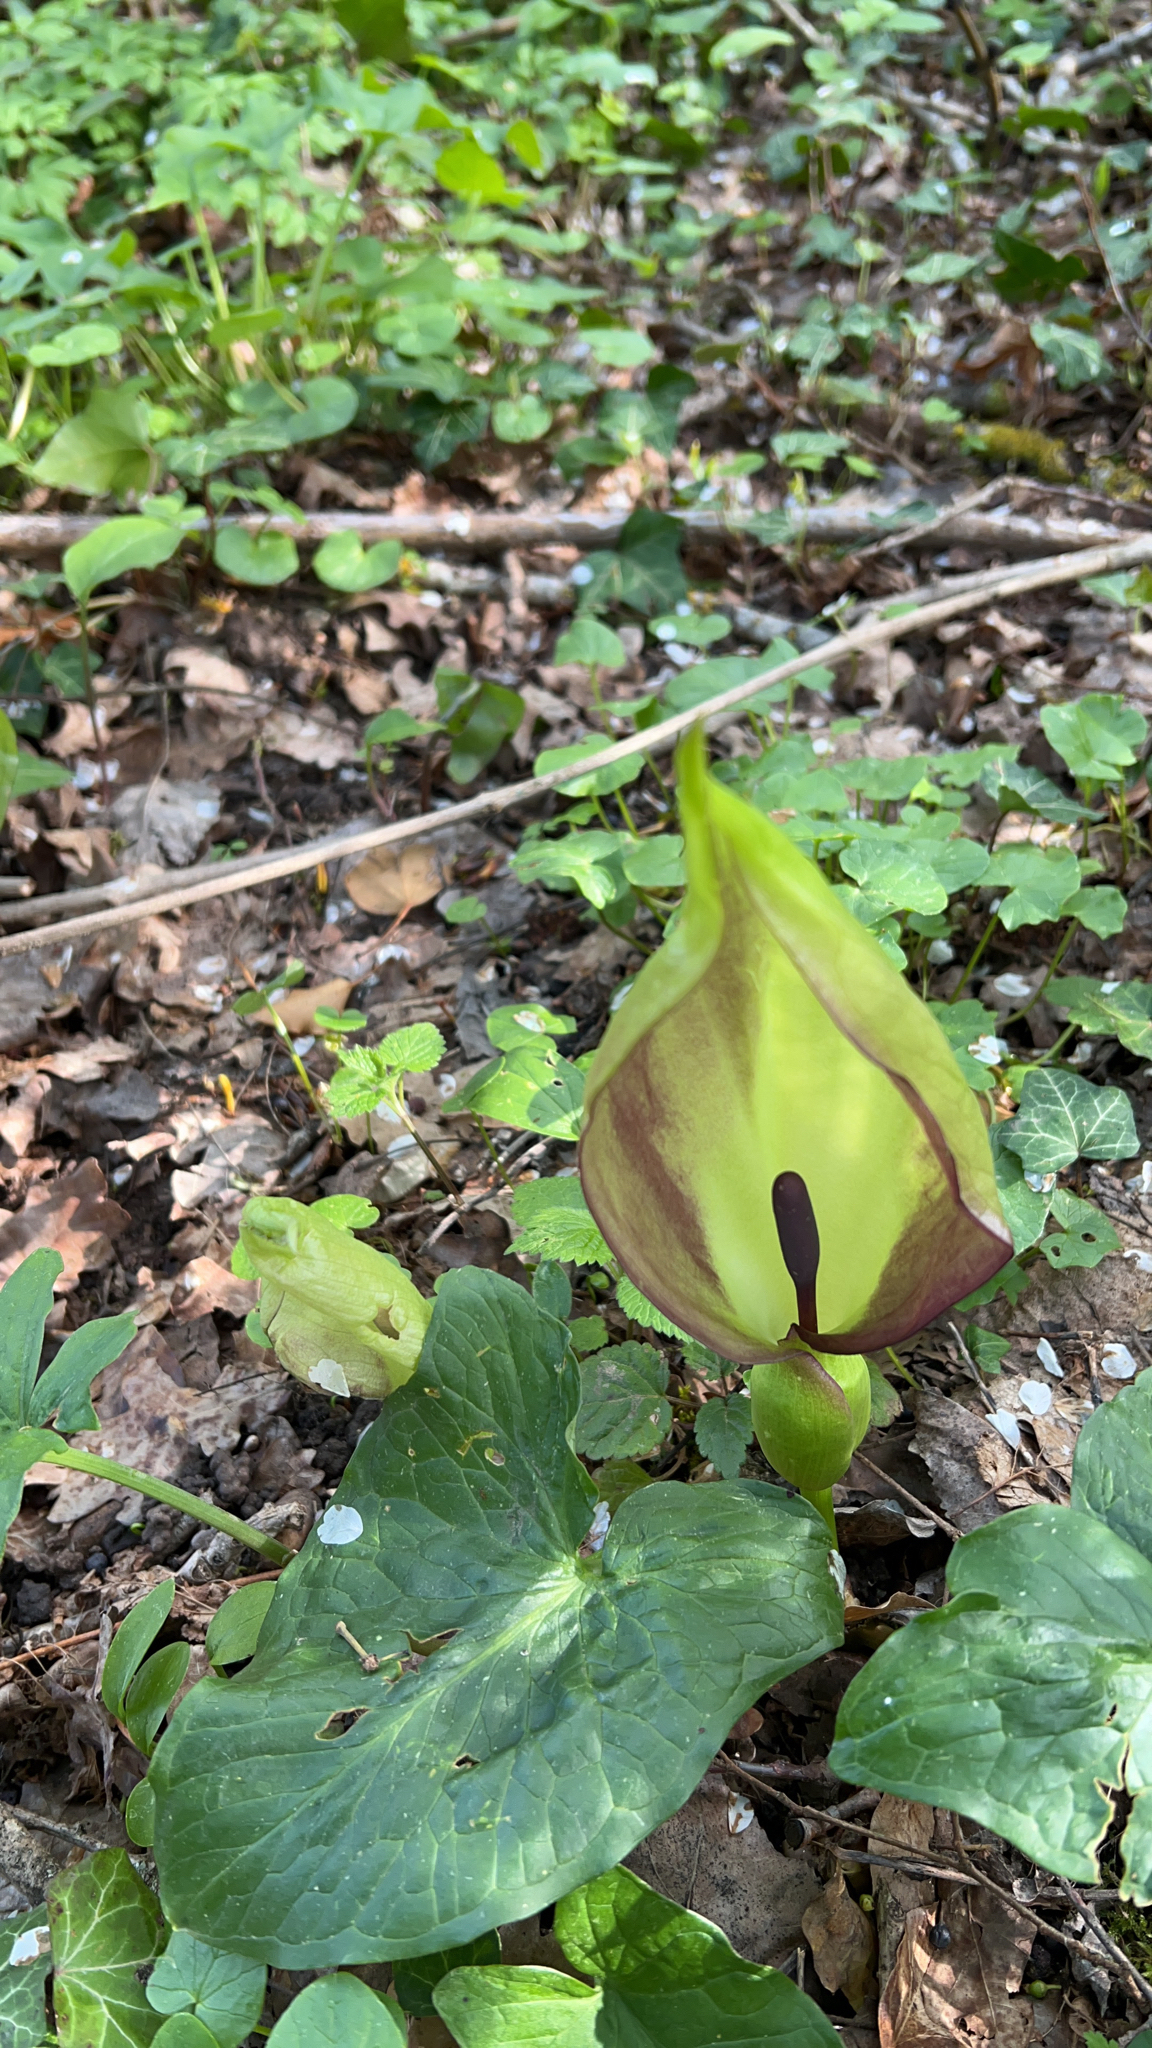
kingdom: Plantae
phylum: Tracheophyta
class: Liliopsida
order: Alismatales
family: Araceae
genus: Arum
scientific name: Arum maculatum
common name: Lords-and-ladies
